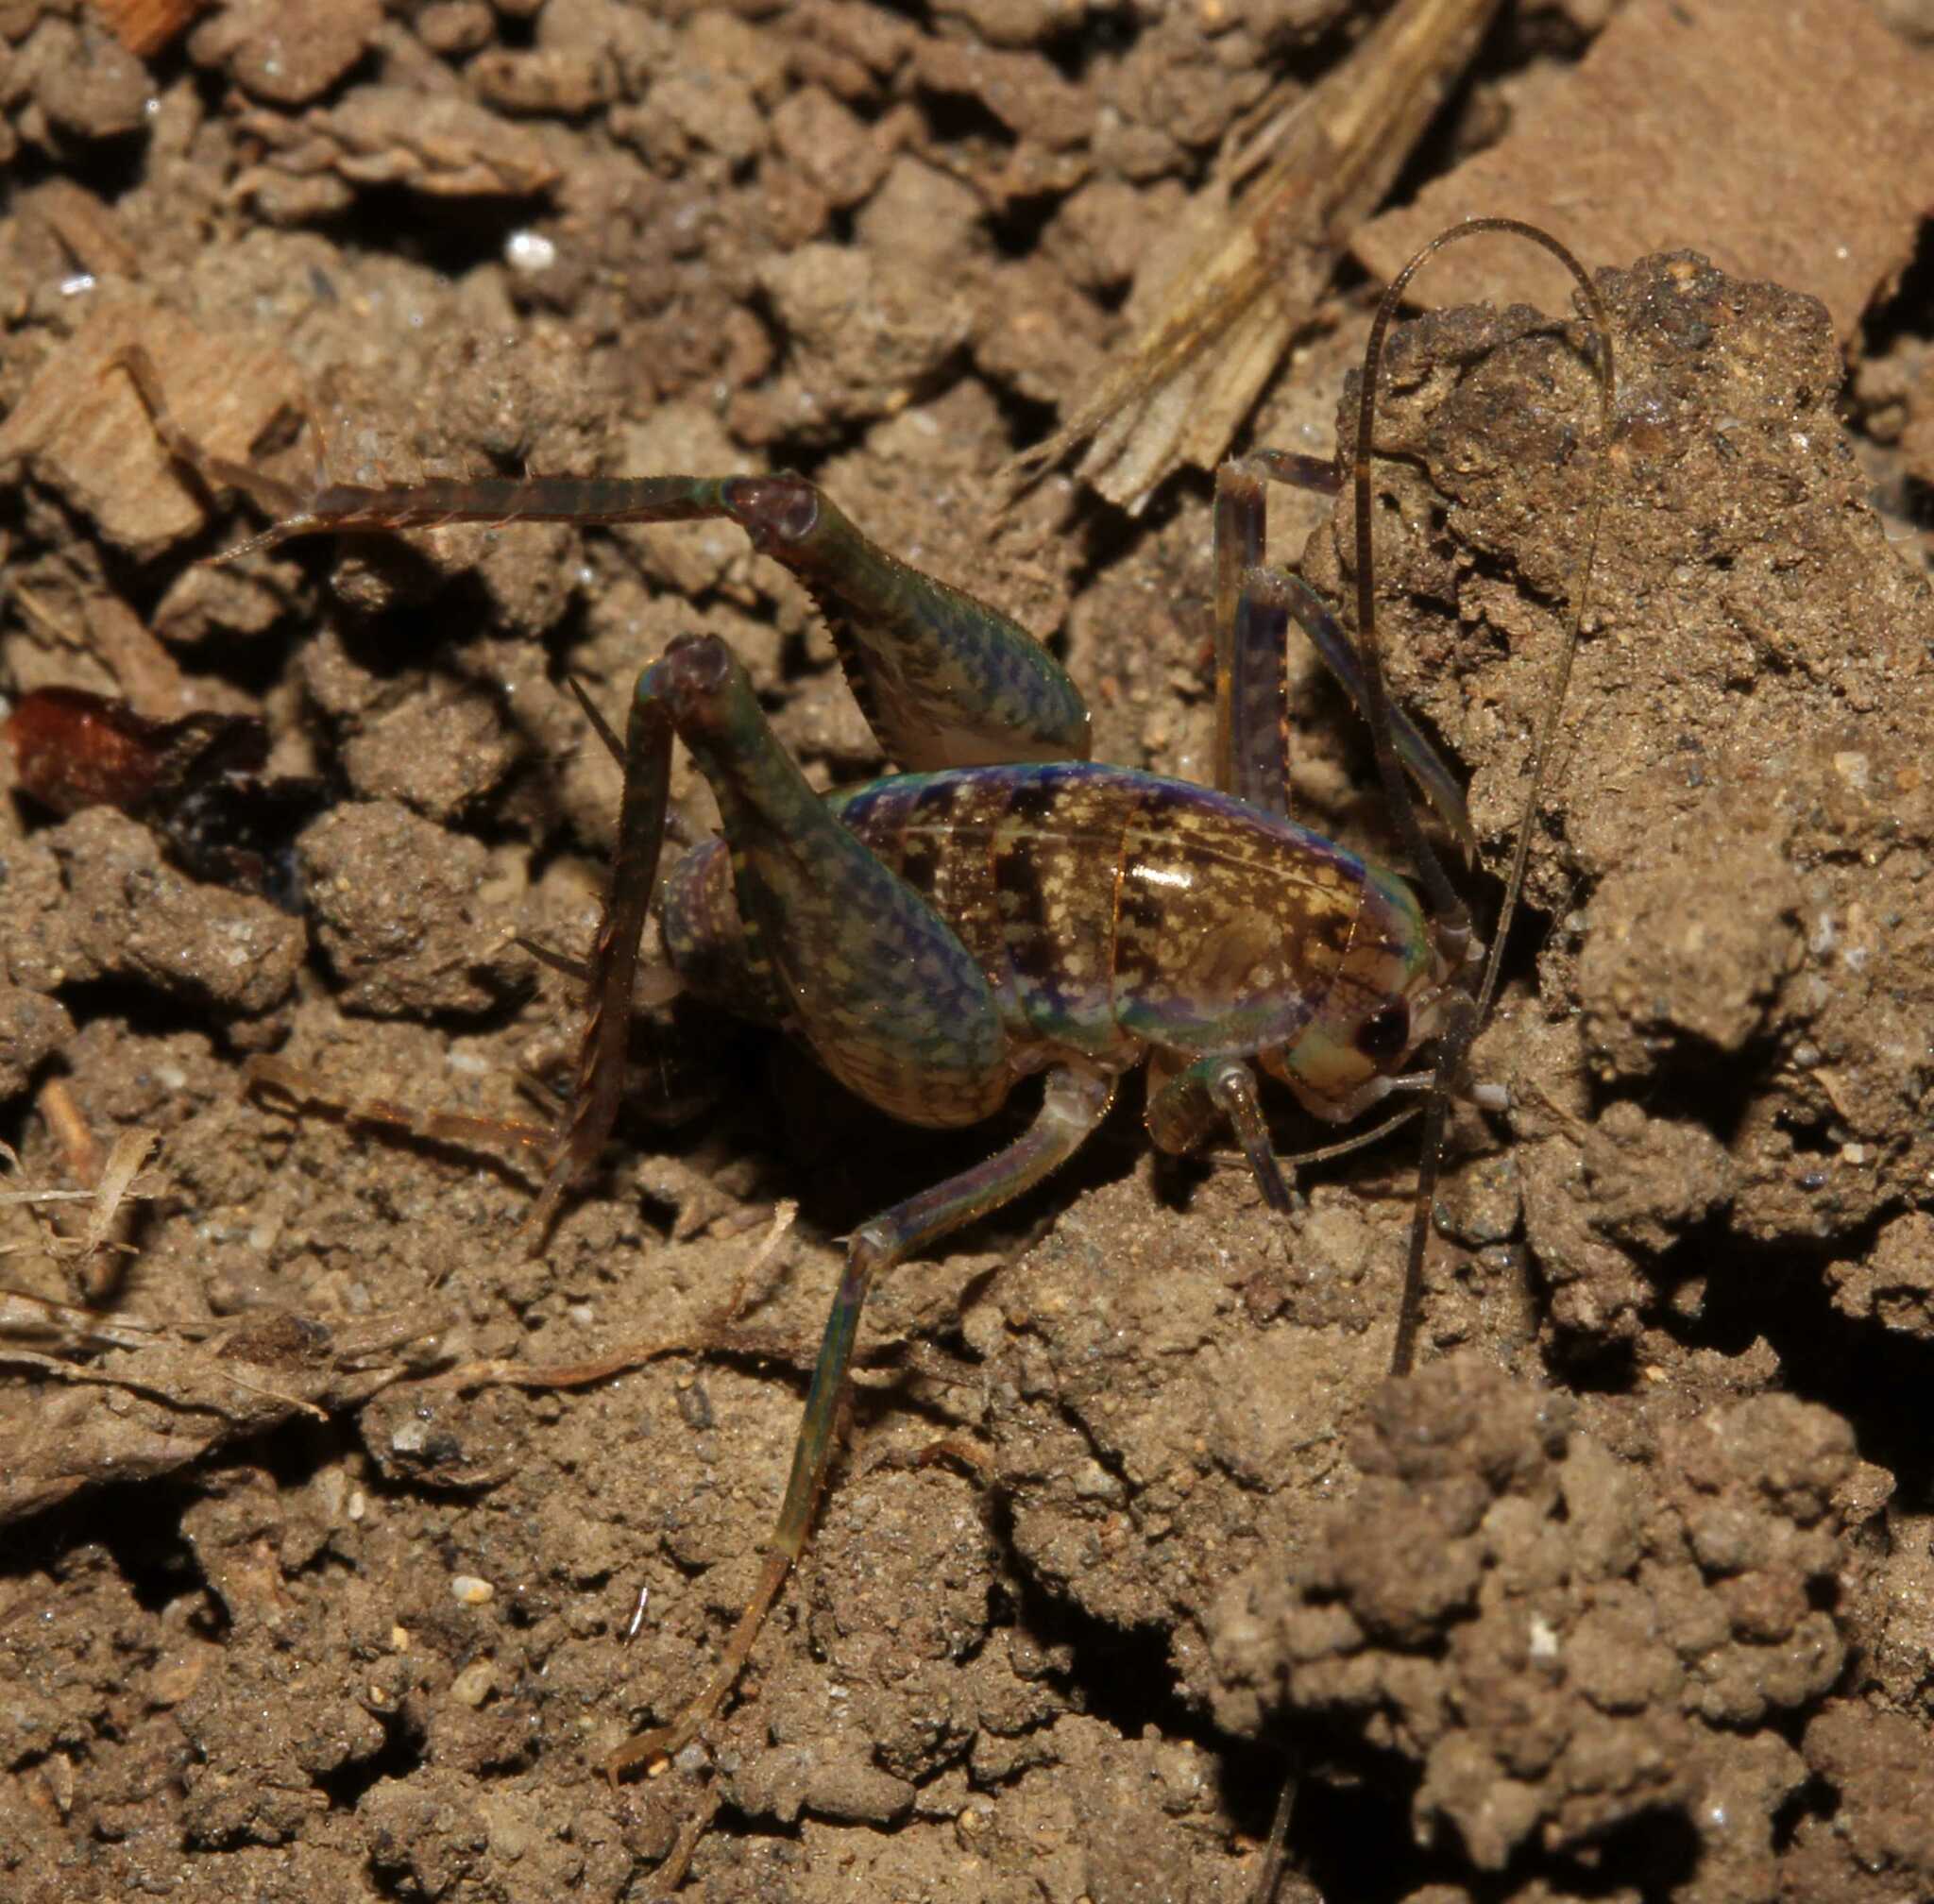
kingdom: Animalia
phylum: Arthropoda
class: Insecta
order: Orthoptera
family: Rhaphidophoridae
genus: Pristoceuthophilus
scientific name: Pristoceuthophilus
